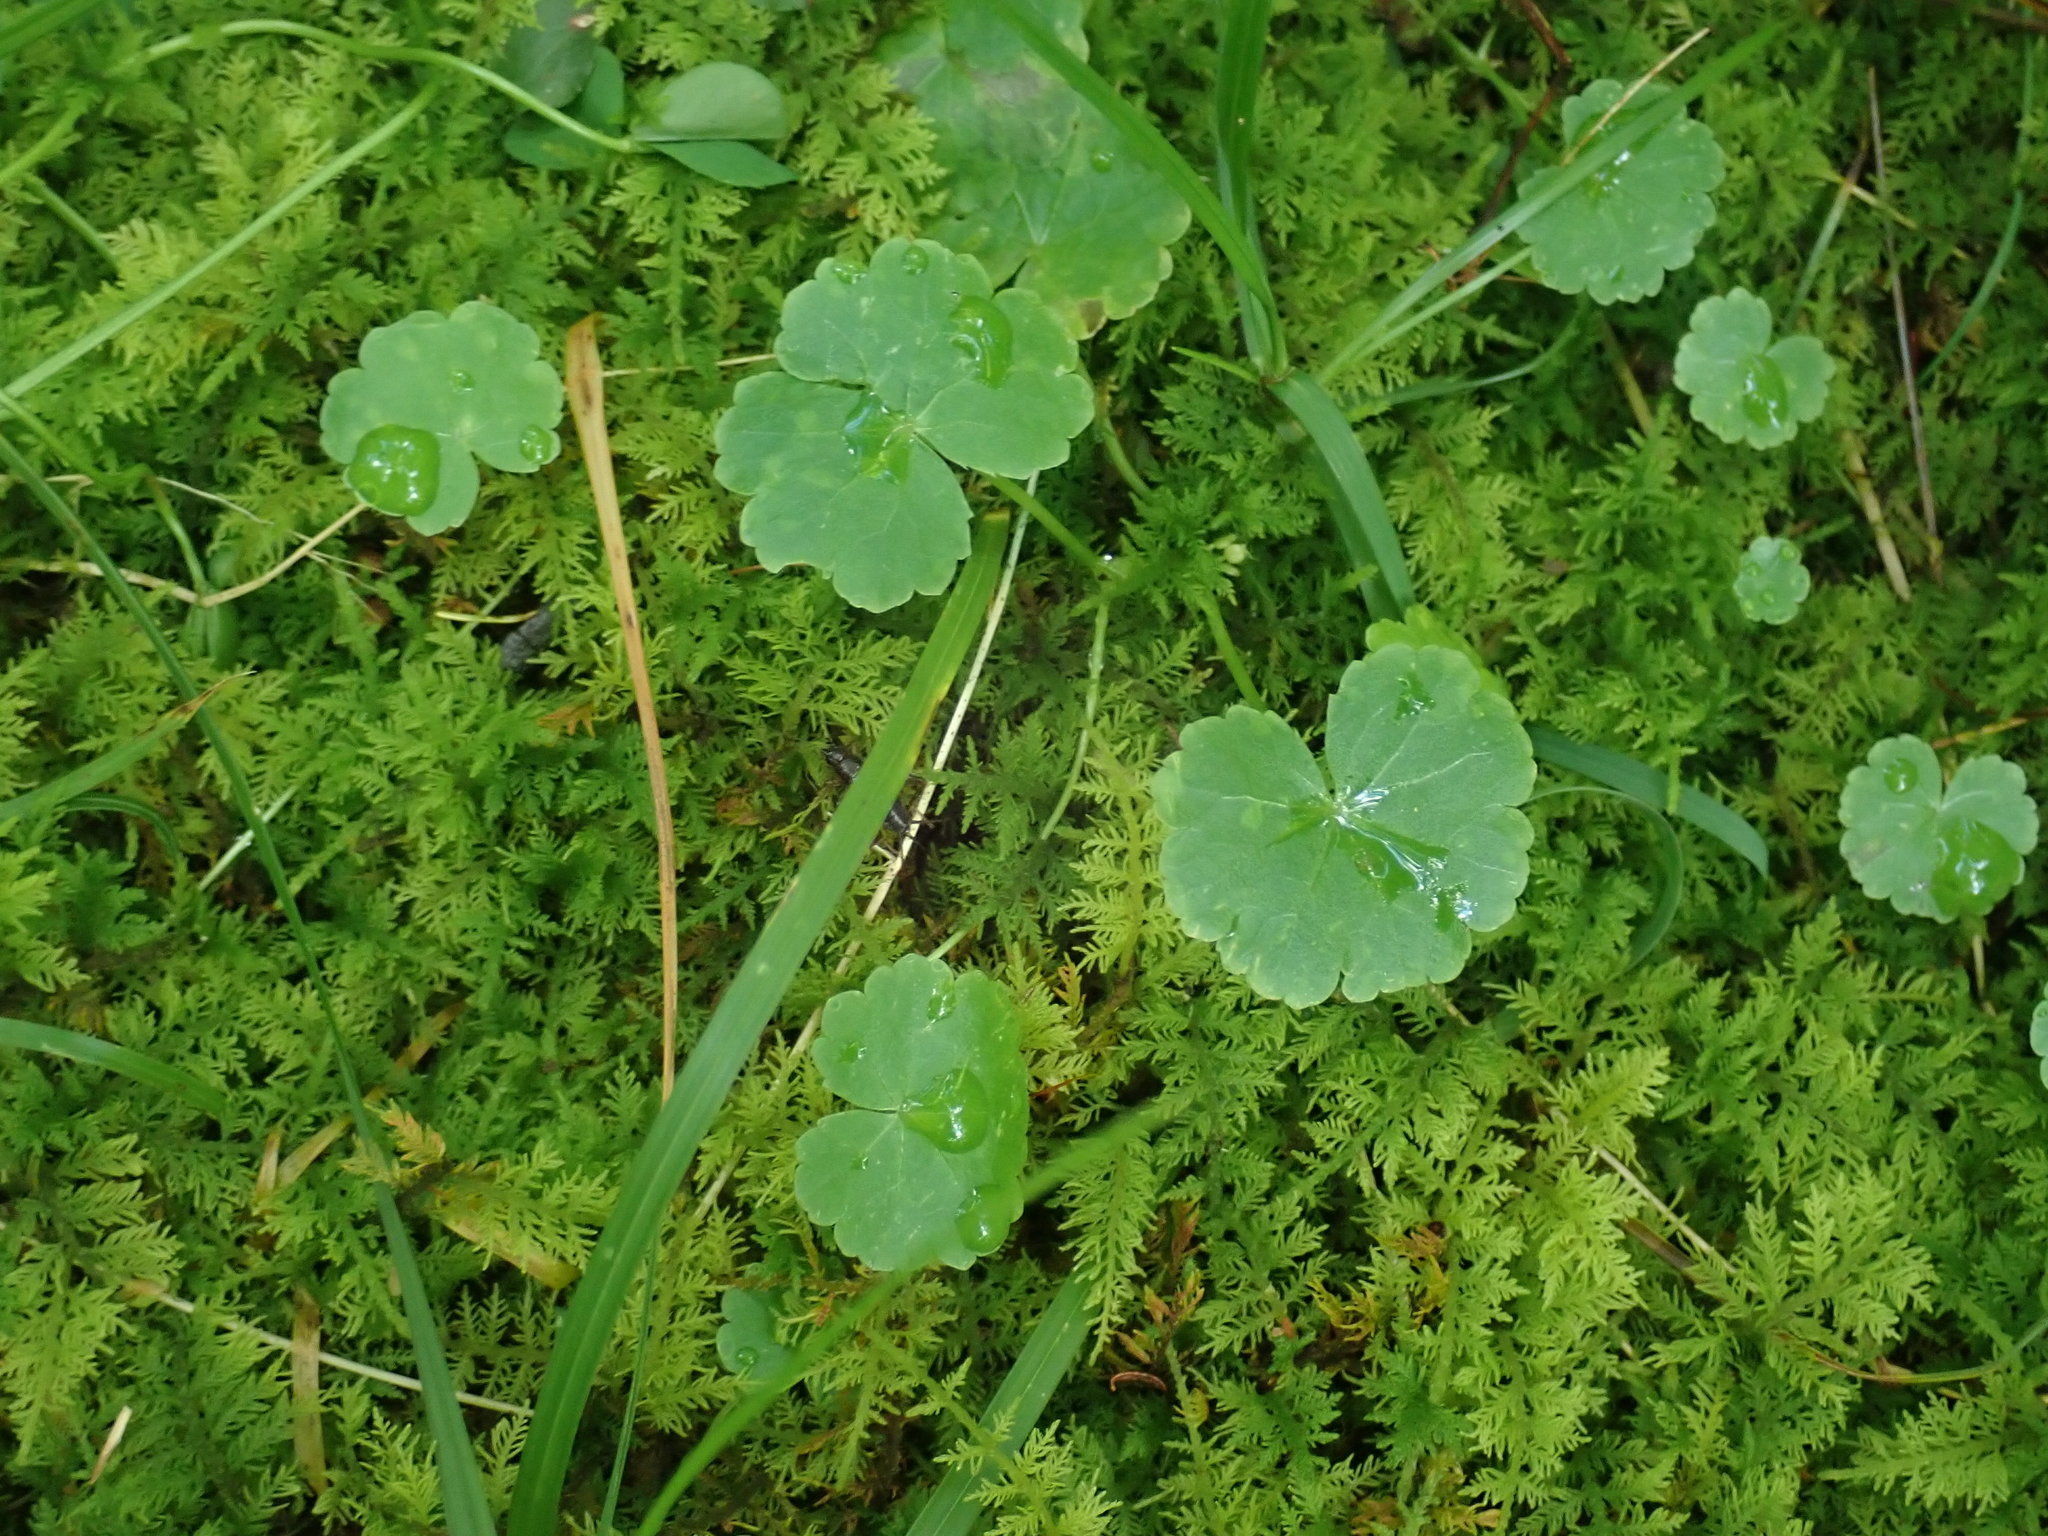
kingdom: Plantae
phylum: Tracheophyta
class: Magnoliopsida
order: Apiales
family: Araliaceae
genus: Hydrocotyle
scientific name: Hydrocotyle americana
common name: American water-pennywort
